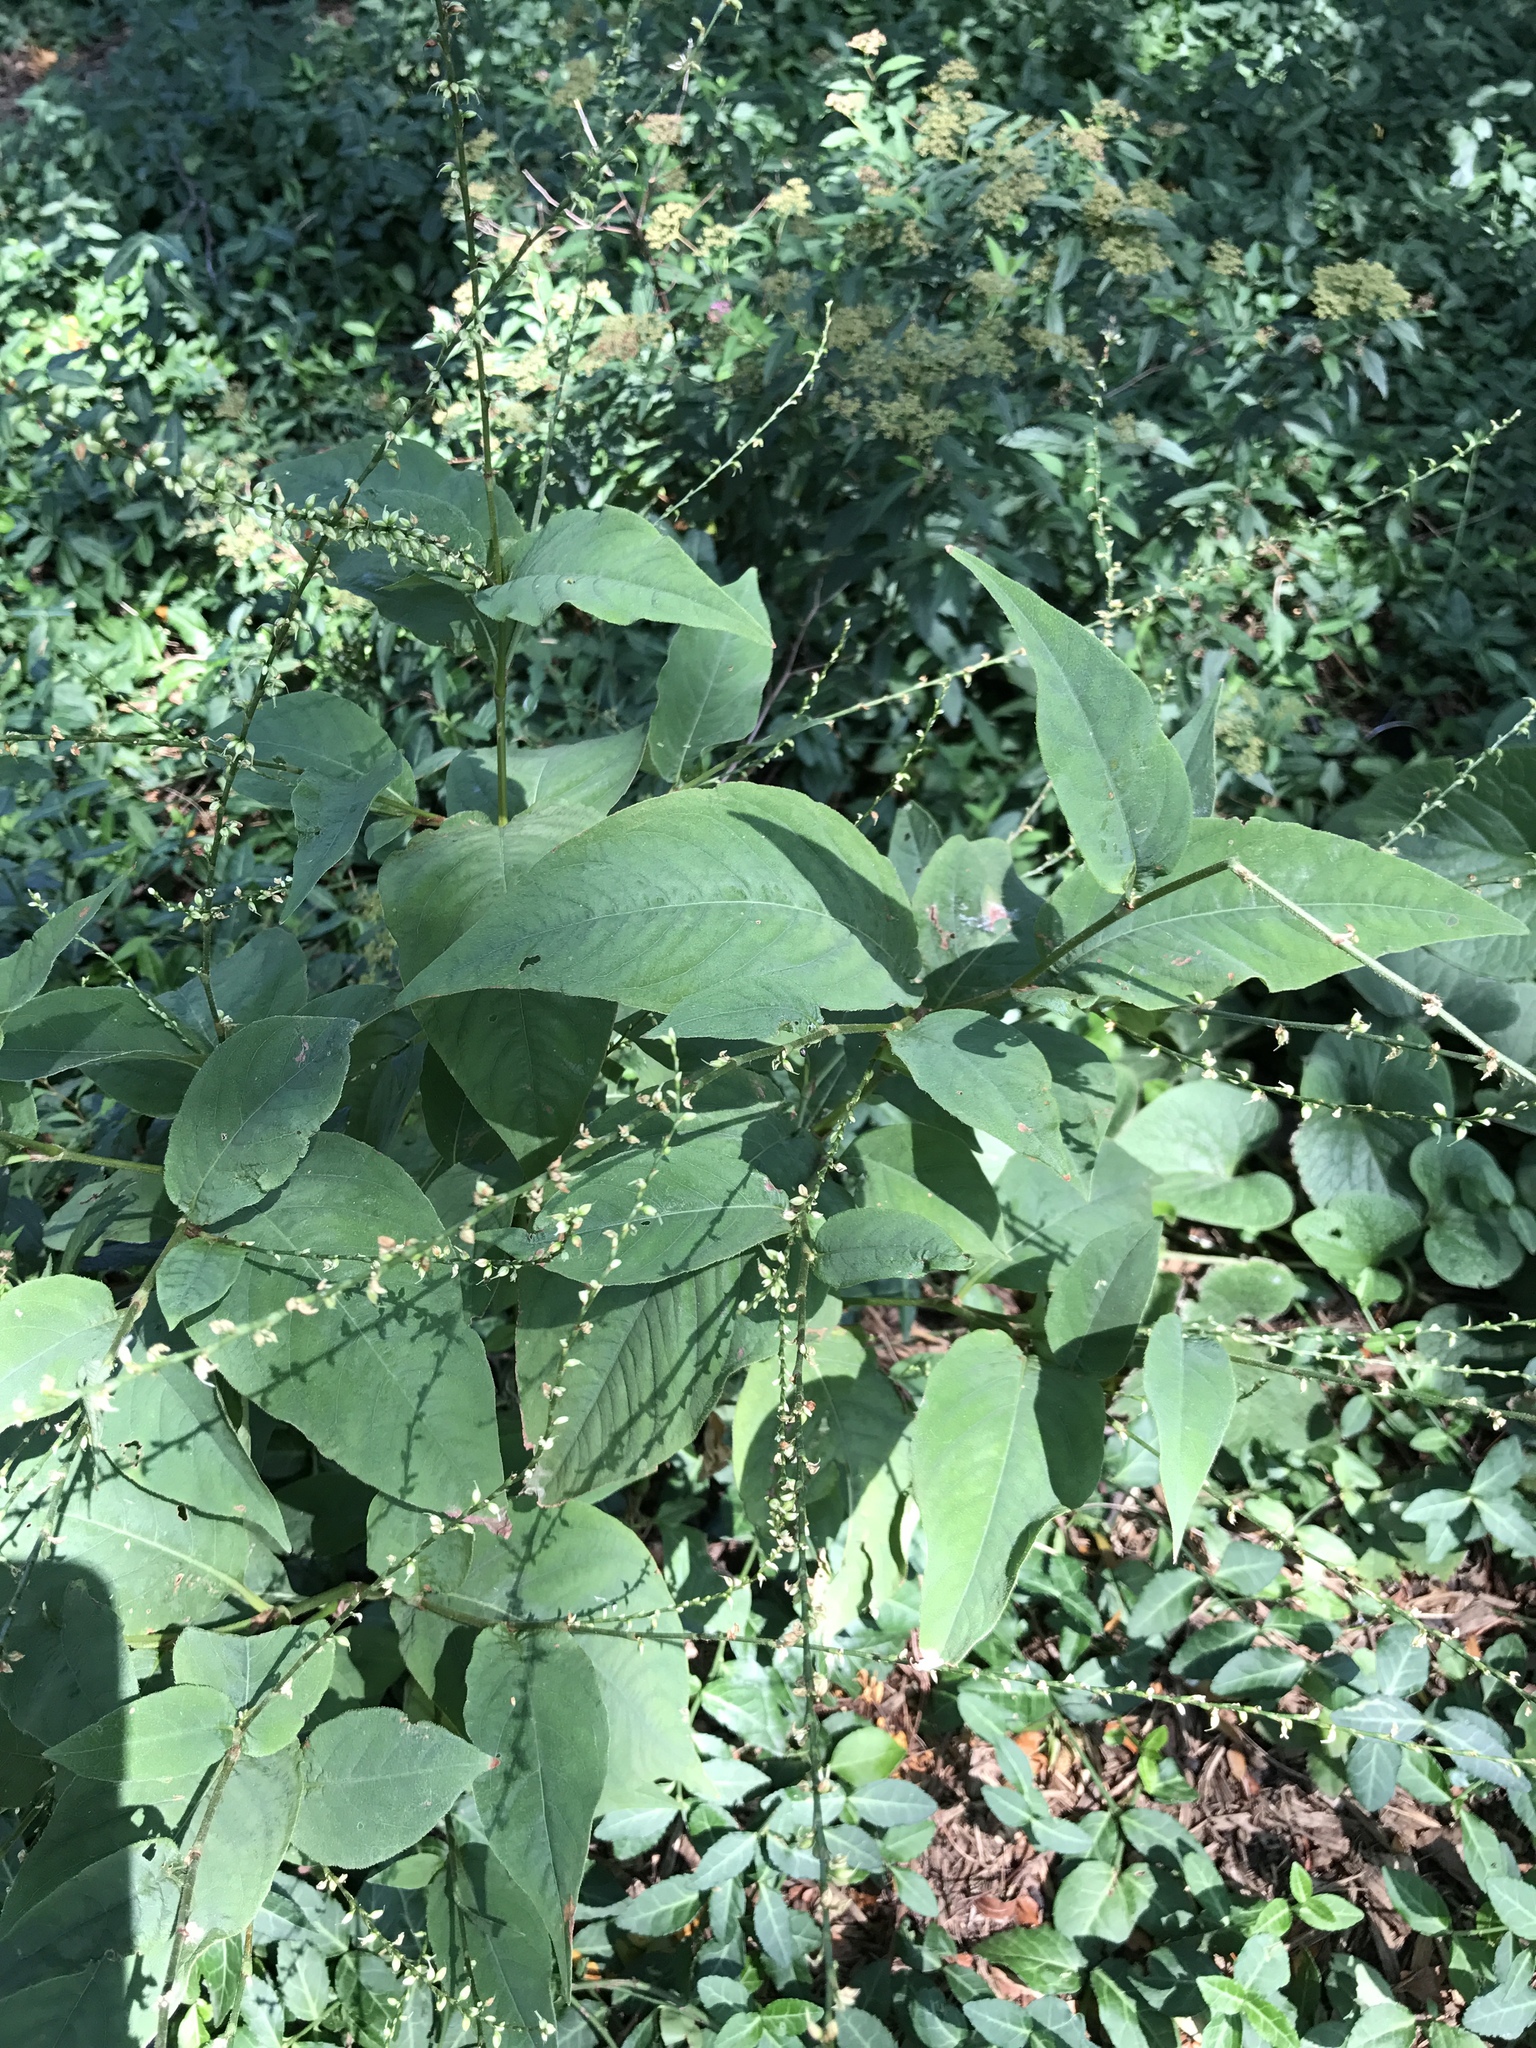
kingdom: Plantae
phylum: Tracheophyta
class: Magnoliopsida
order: Caryophyllales
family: Polygonaceae
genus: Persicaria
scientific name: Persicaria virginiana
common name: Jumpseed
